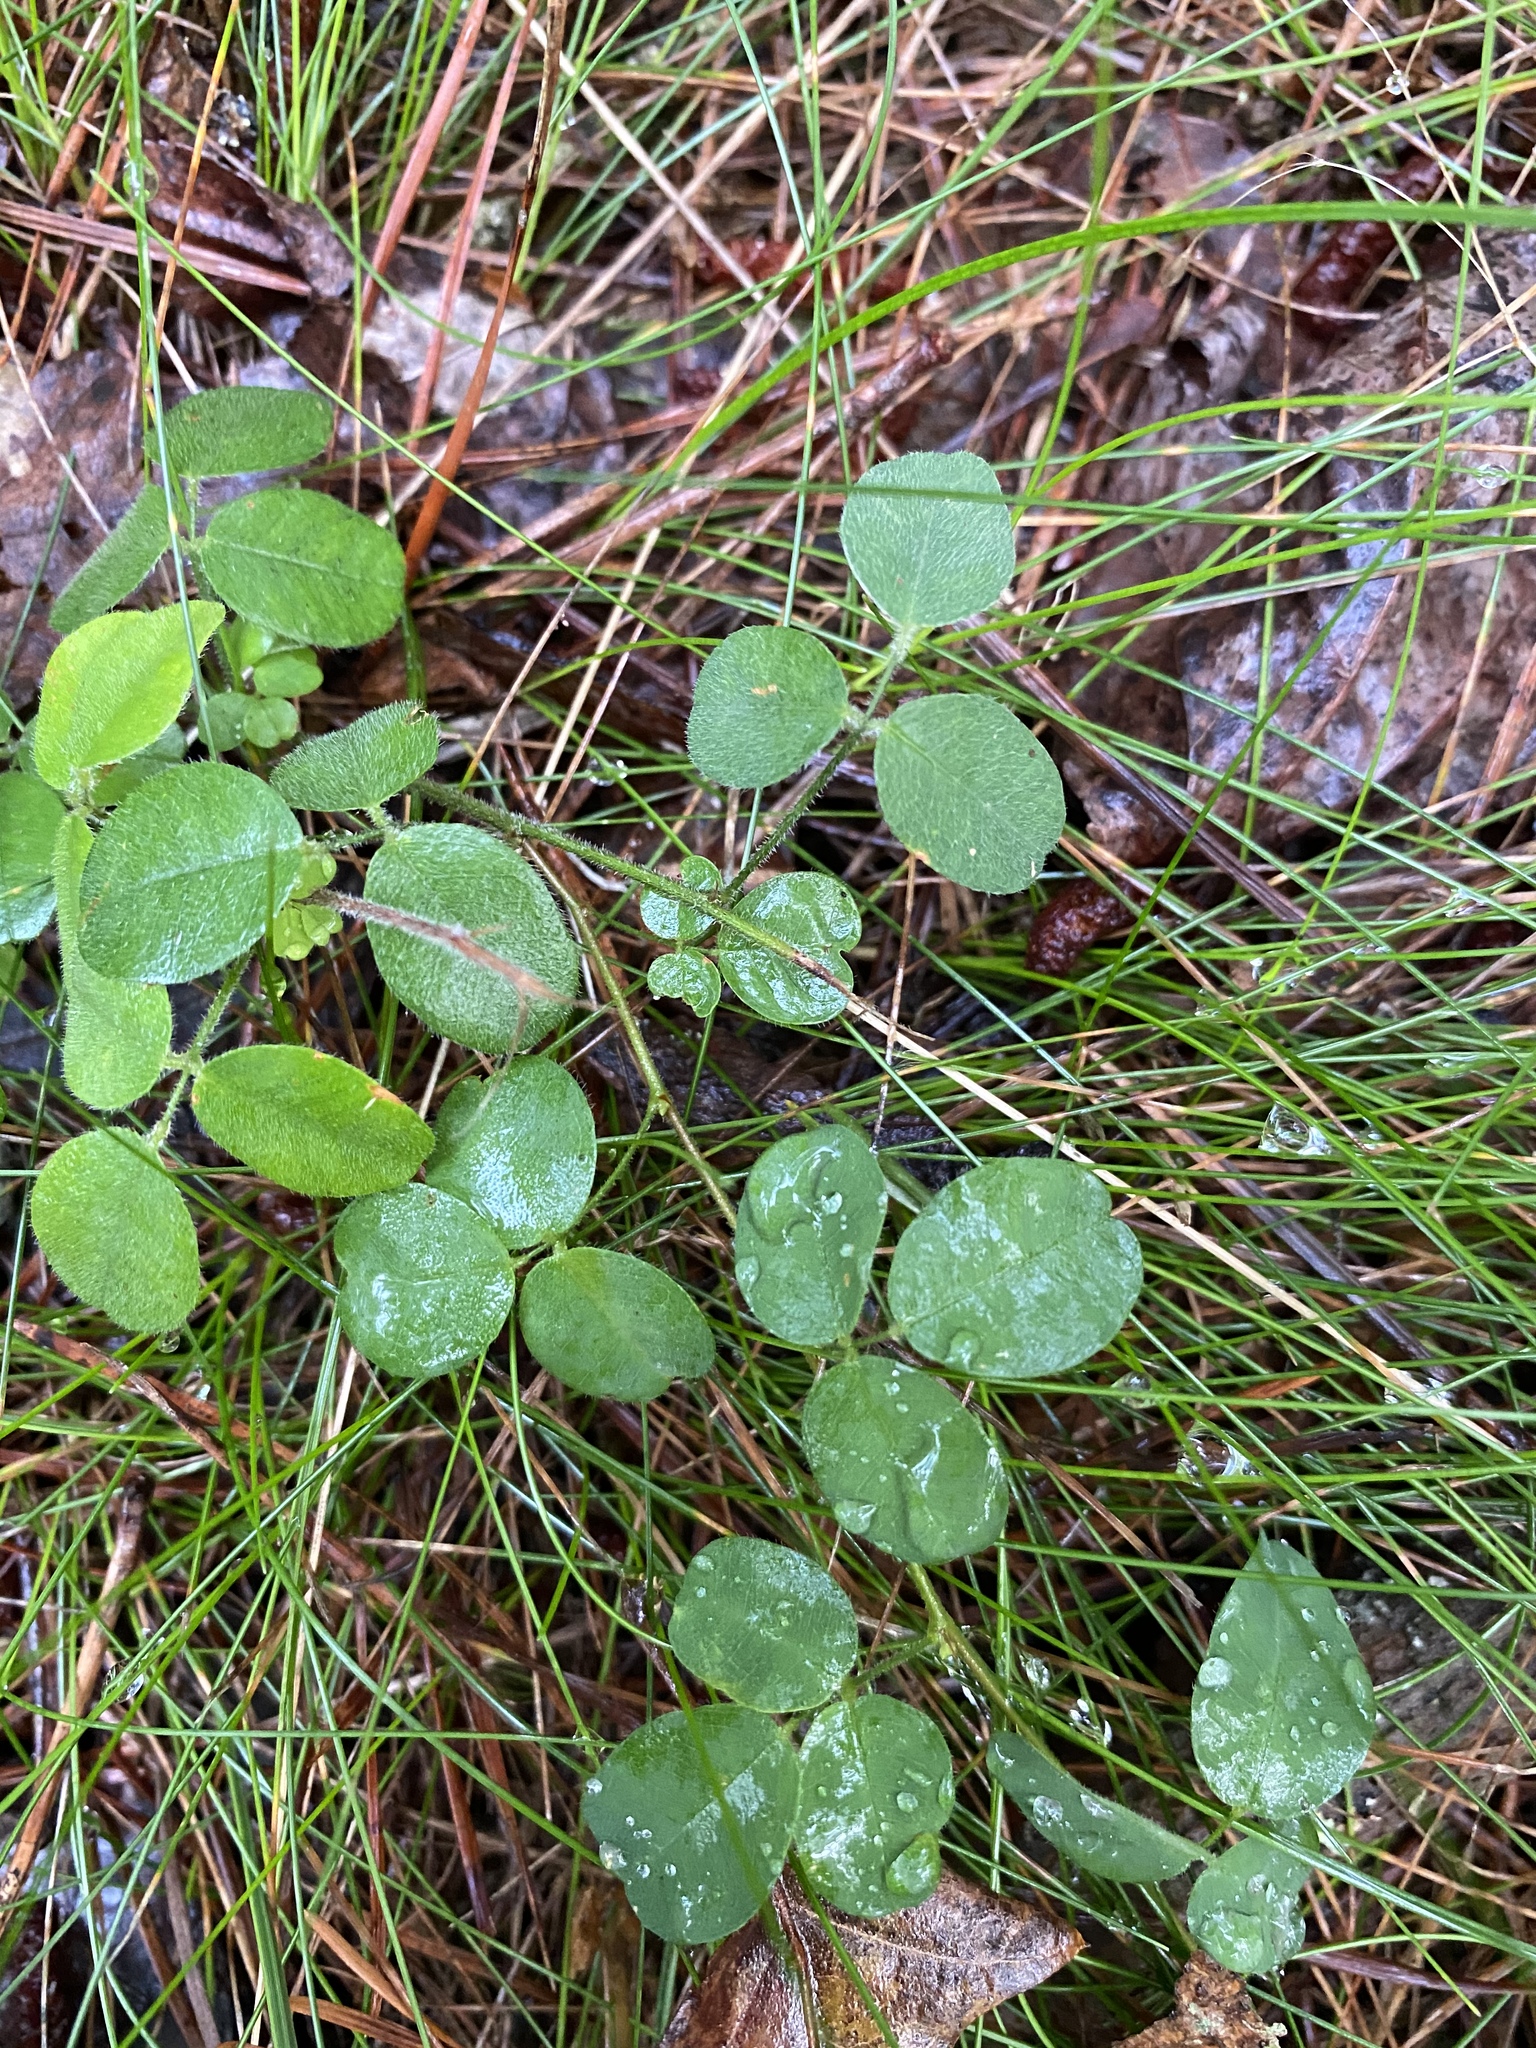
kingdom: Plantae
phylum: Tracheophyta
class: Magnoliopsida
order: Fabales
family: Fabaceae
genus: Lespedeza
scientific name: Lespedeza procumbens
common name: Downy trailing bush-clover
